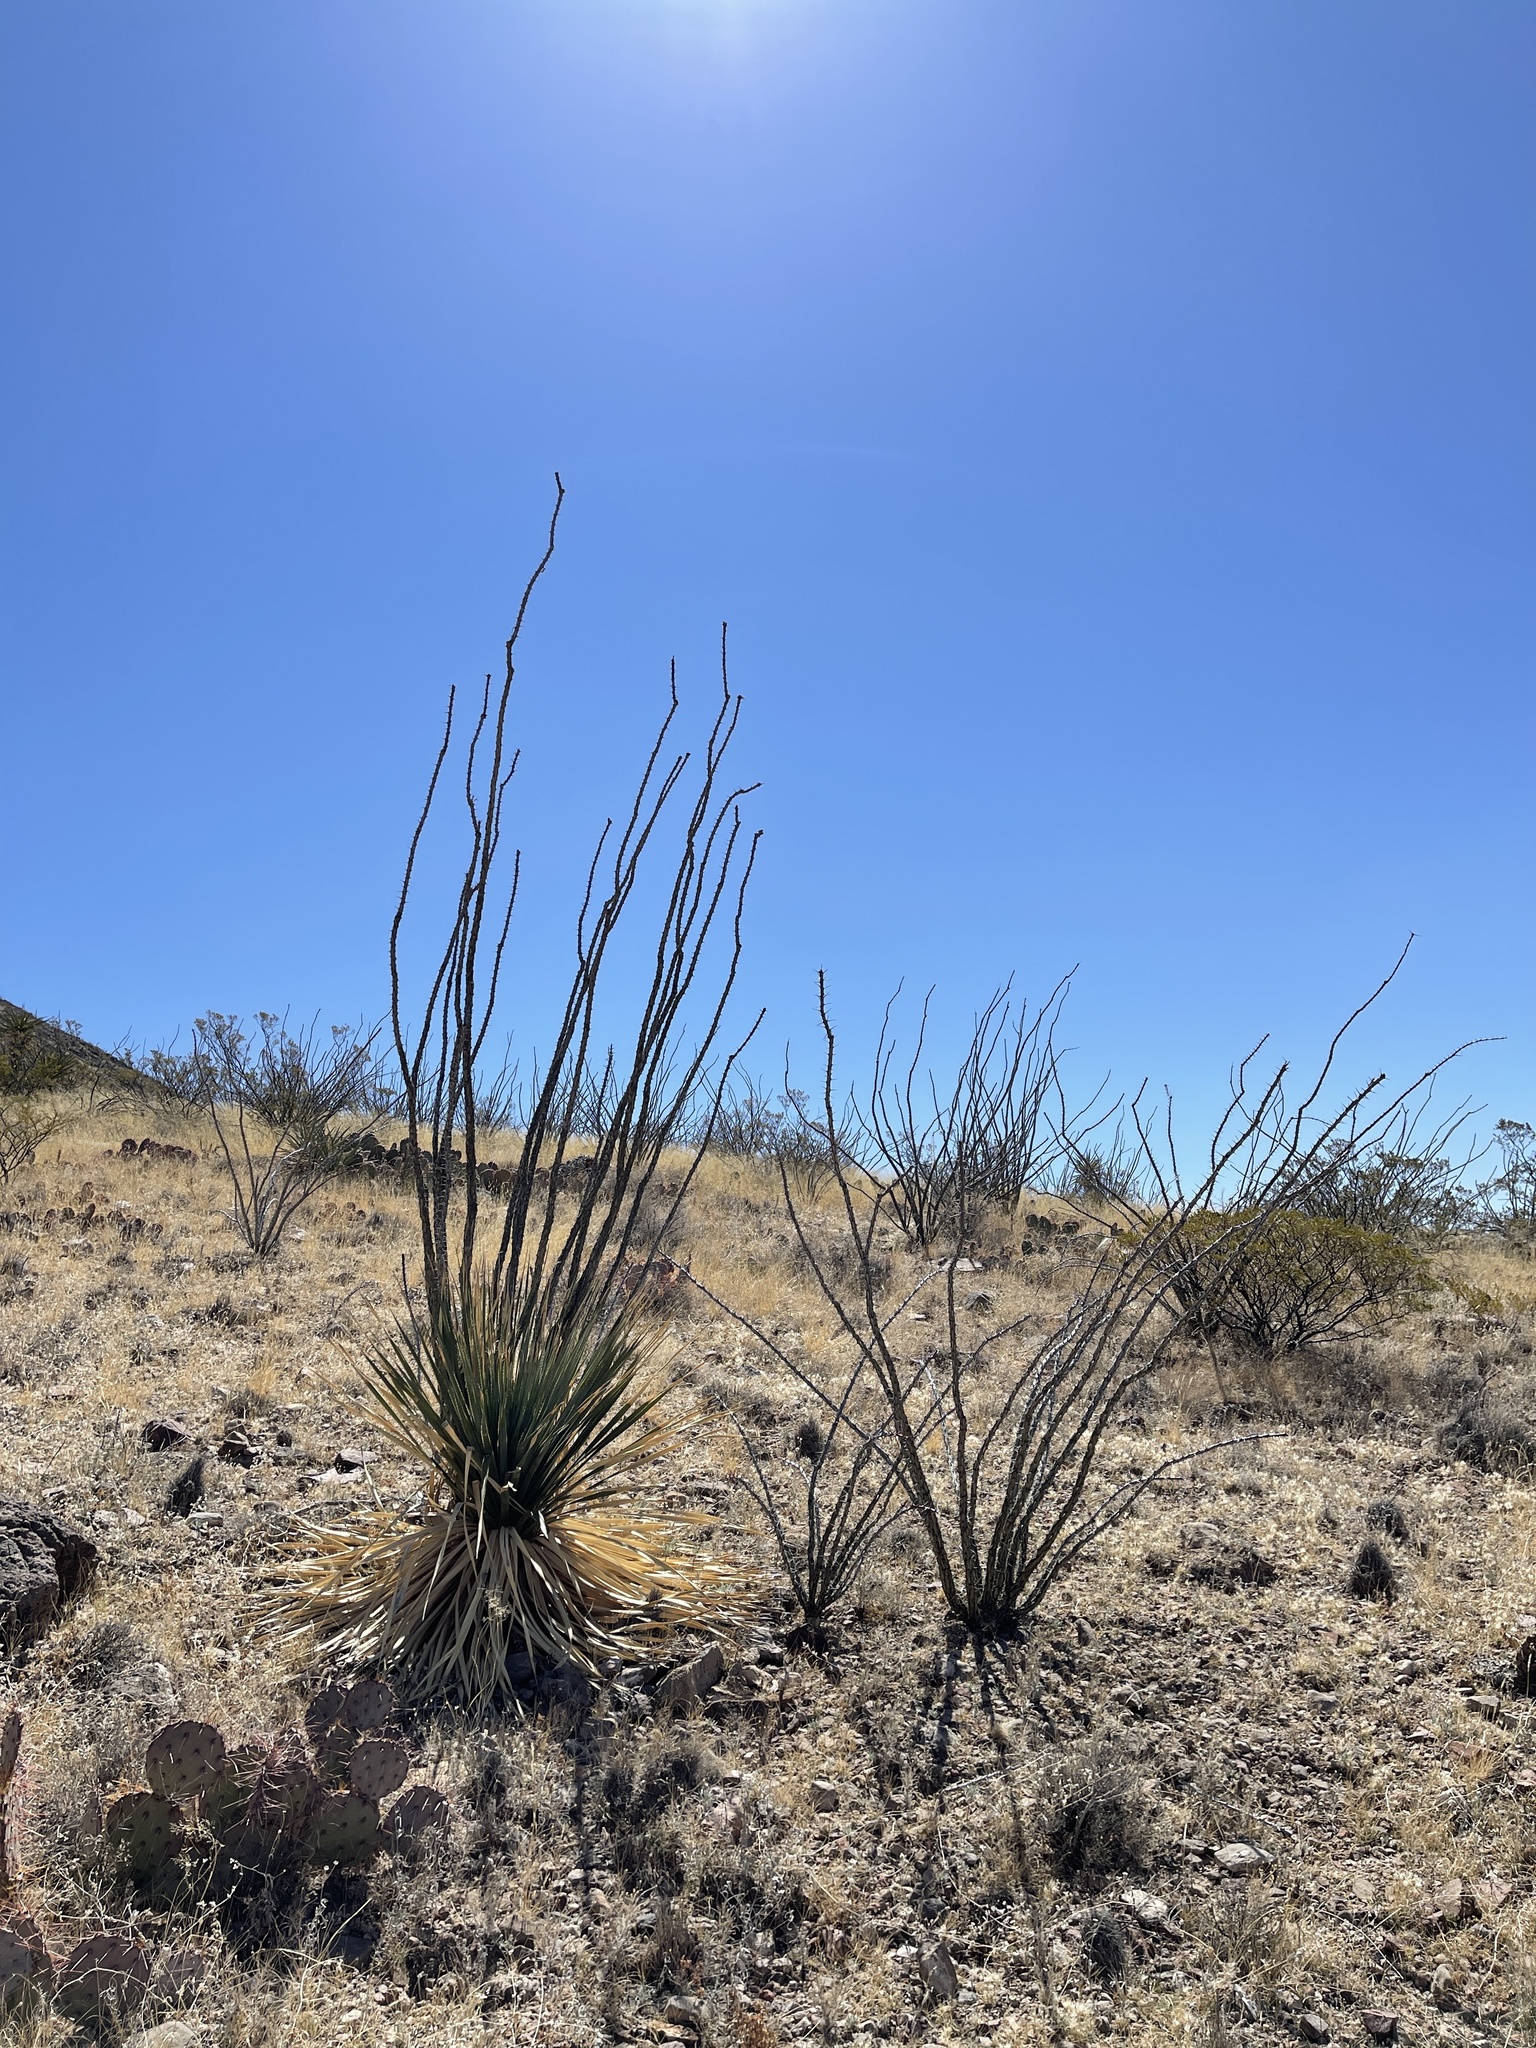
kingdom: Plantae
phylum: Tracheophyta
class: Magnoliopsida
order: Ericales
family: Fouquieriaceae
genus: Fouquieria
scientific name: Fouquieria splendens
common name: Vine-cactus
